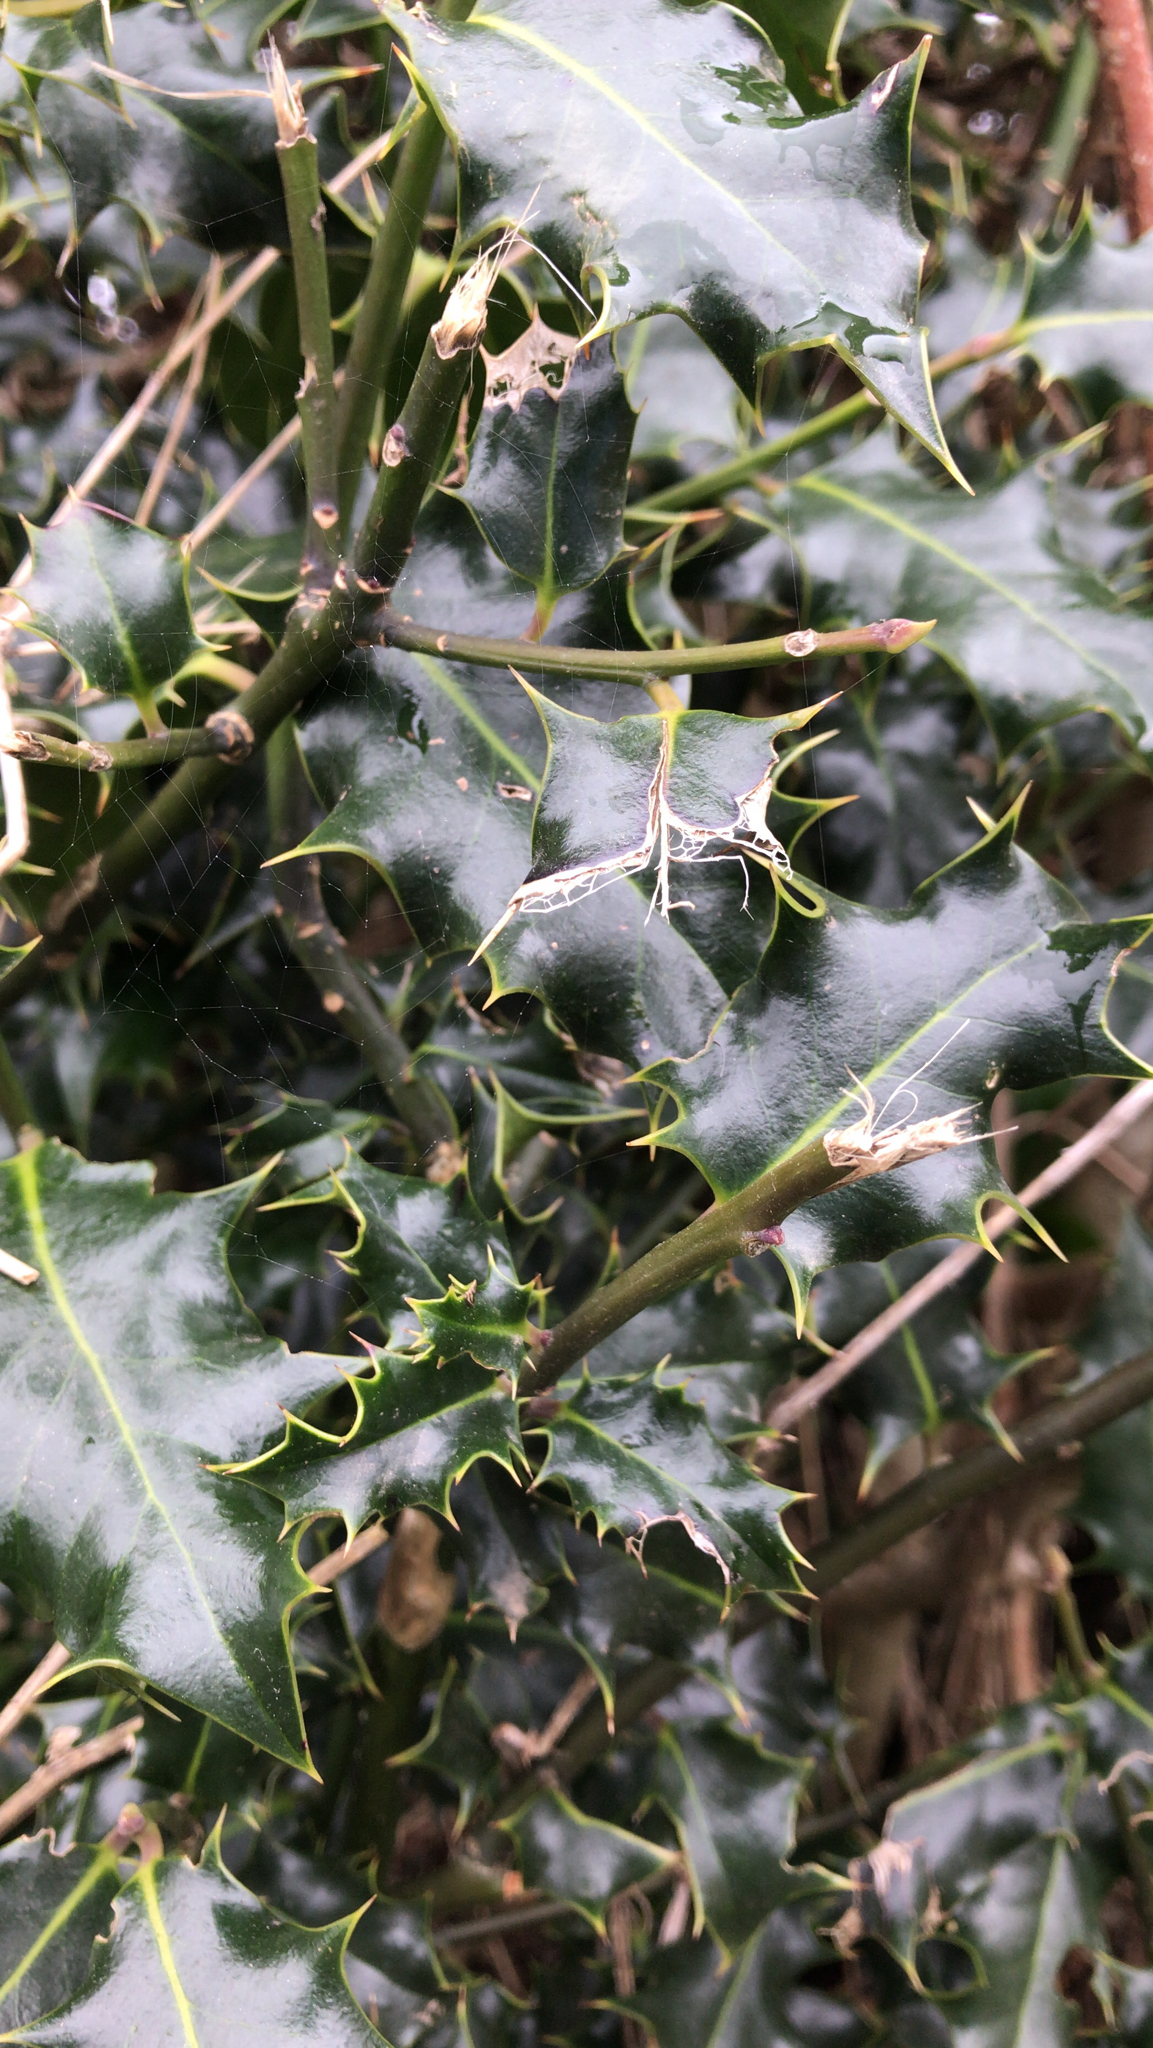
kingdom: Plantae
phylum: Tracheophyta
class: Magnoliopsida
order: Aquifoliales
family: Aquifoliaceae
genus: Ilex
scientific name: Ilex aquifolium
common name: English holly
